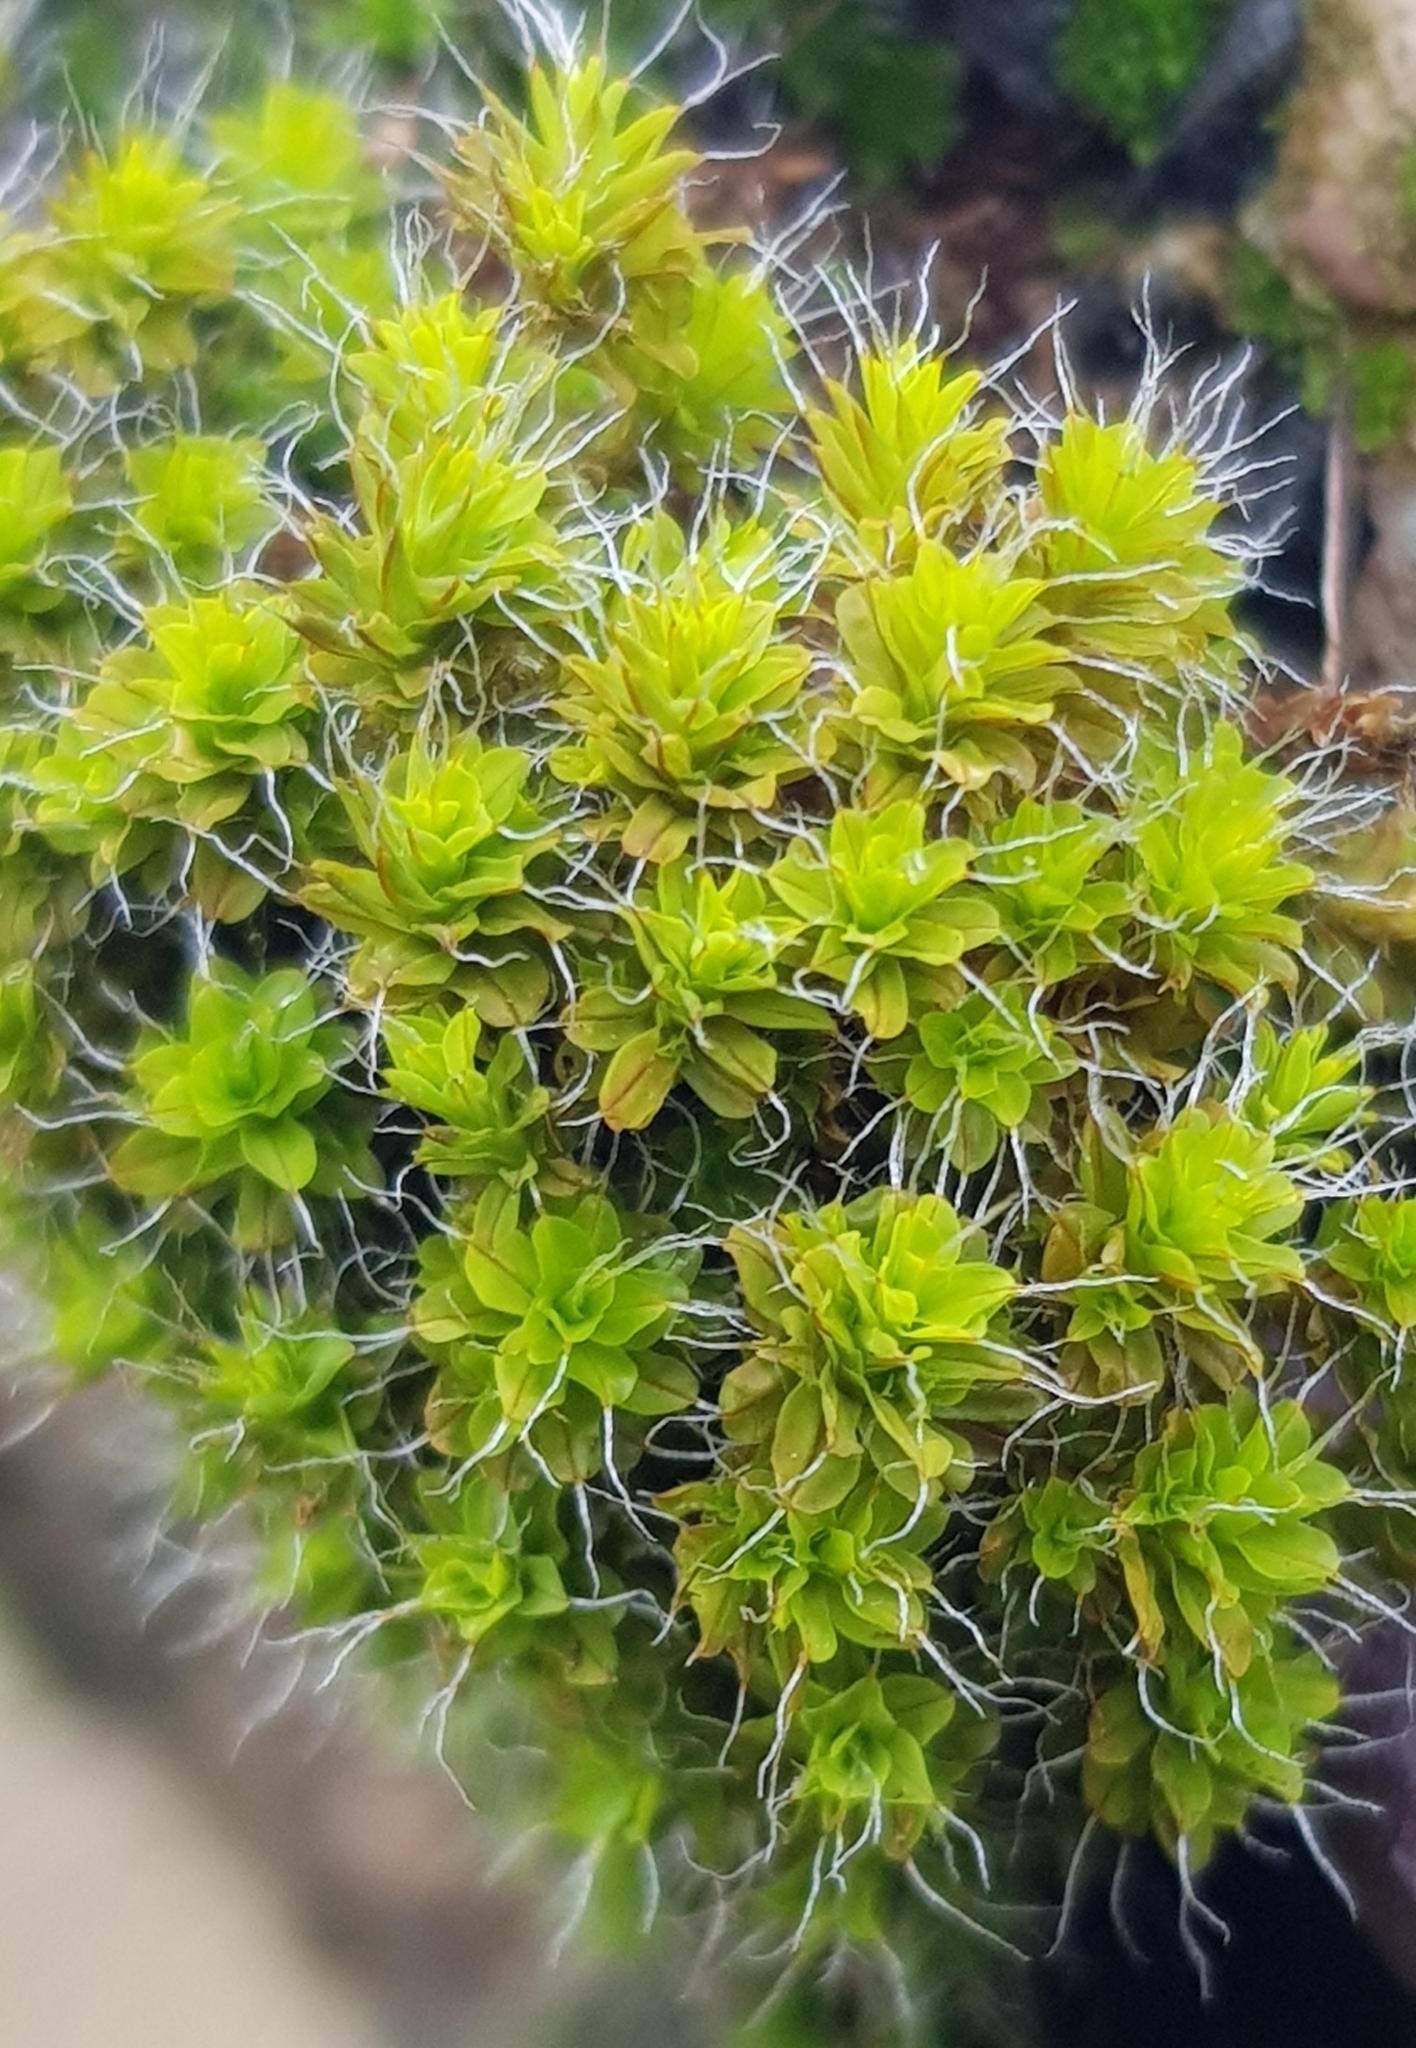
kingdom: Plantae
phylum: Bryophyta
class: Bryopsida
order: Pottiales
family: Pottiaceae
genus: Syntrichia
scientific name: Syntrichia montana
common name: Intermediate screw-moss
